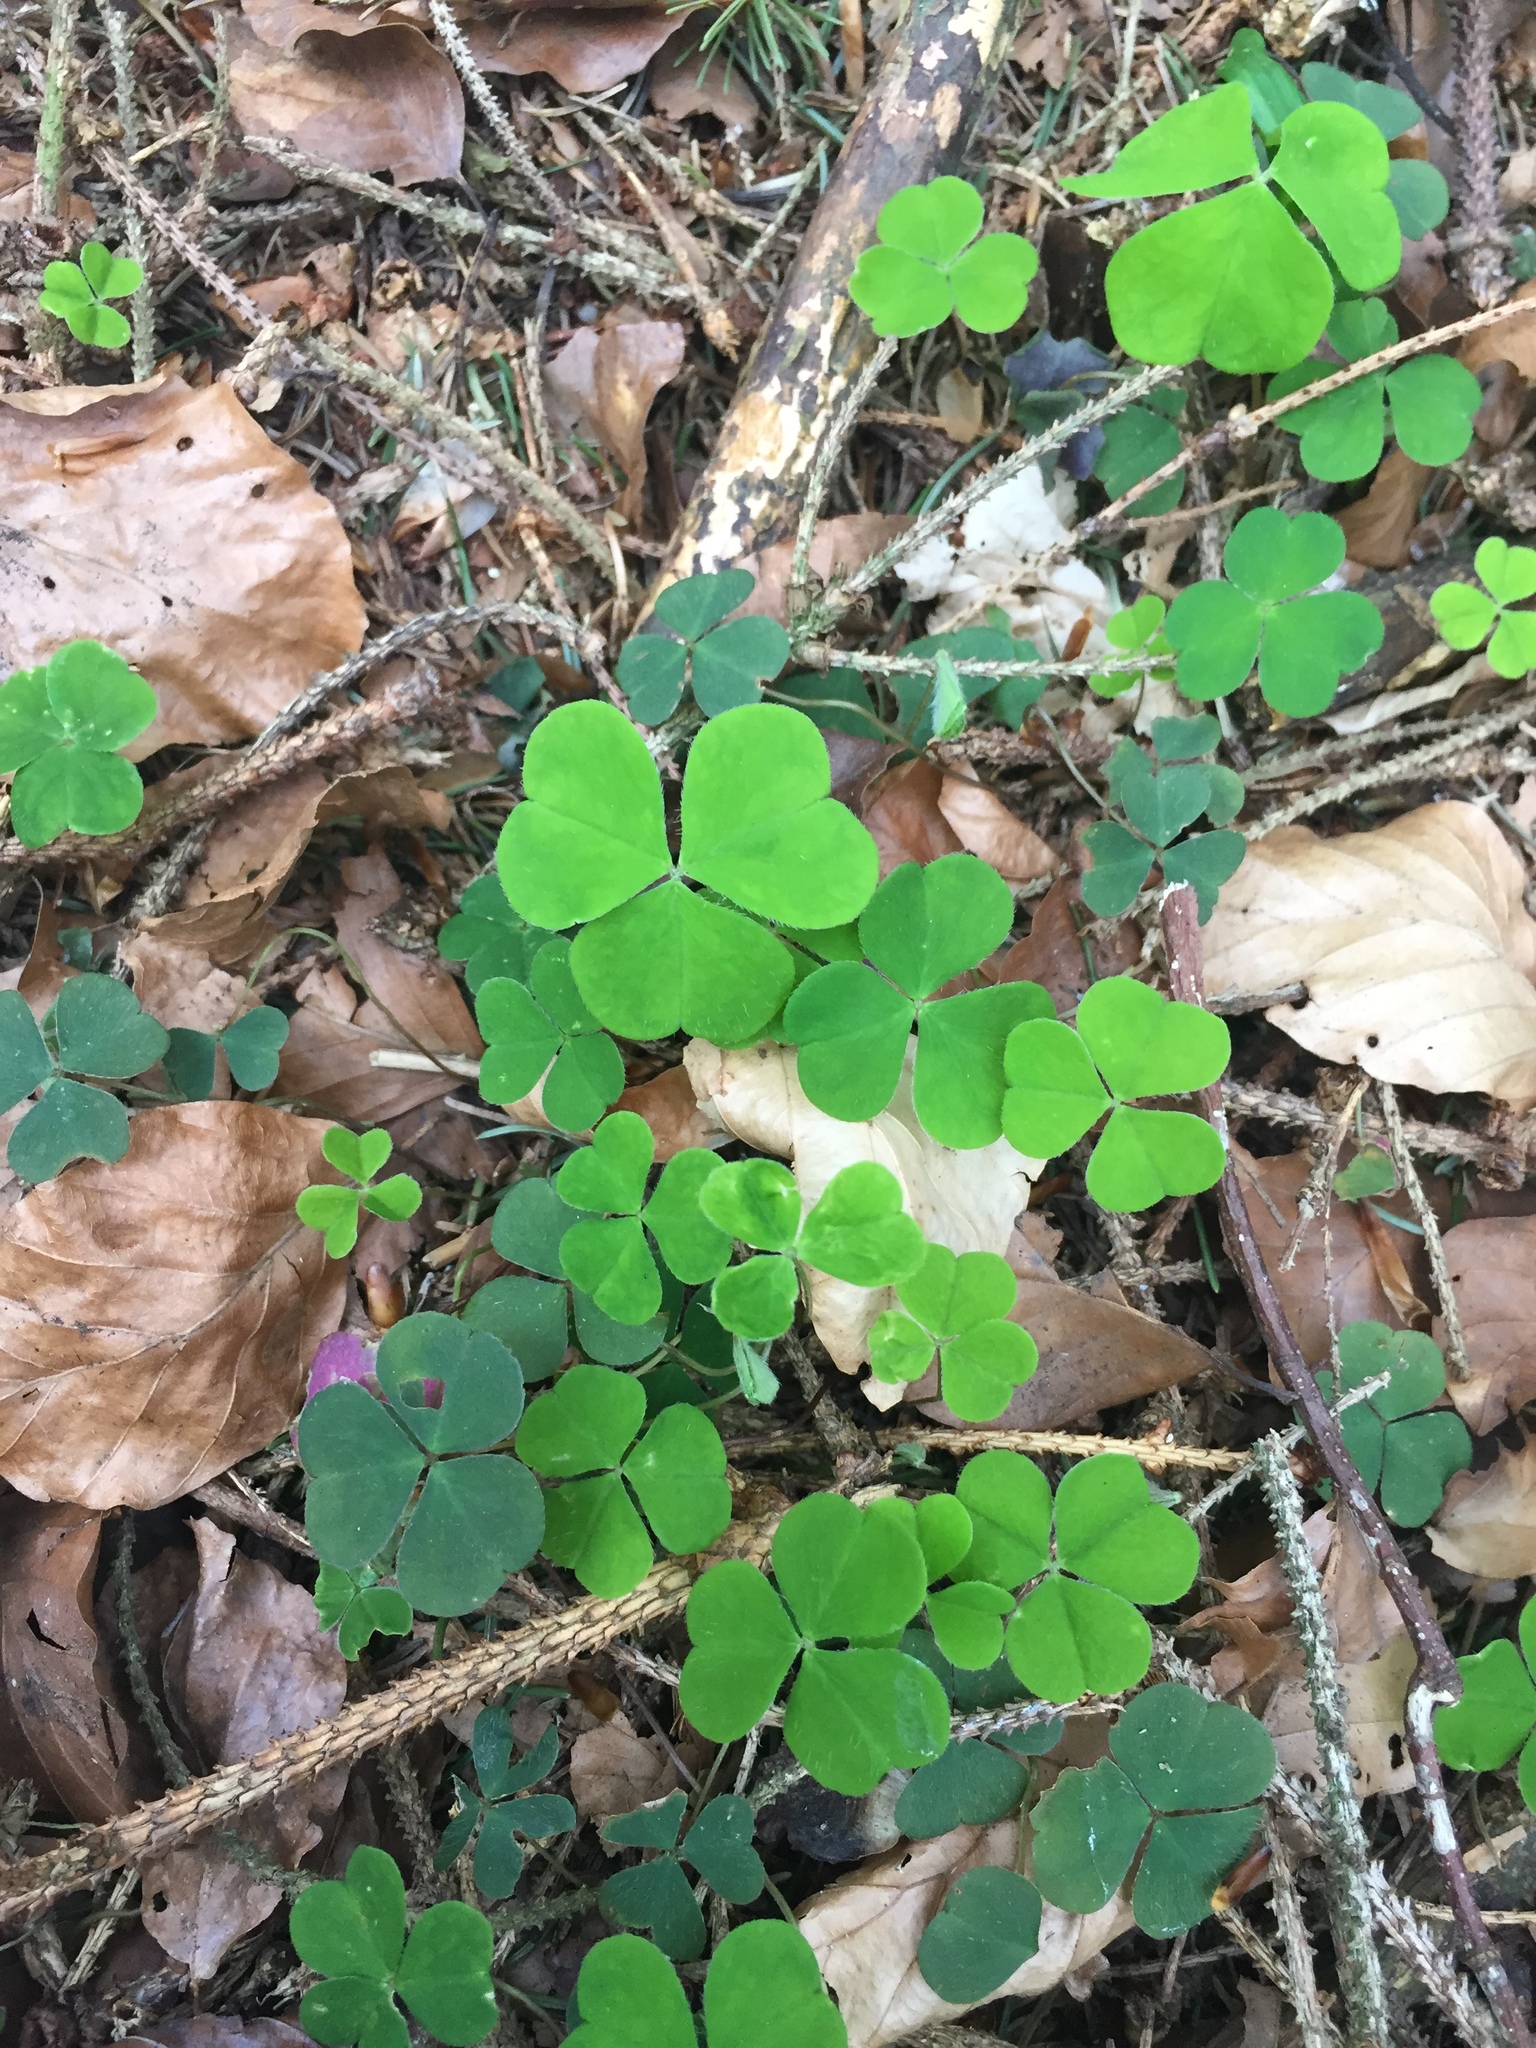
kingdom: Plantae
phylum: Tracheophyta
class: Magnoliopsida
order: Oxalidales
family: Oxalidaceae
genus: Oxalis
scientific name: Oxalis acetosella
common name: Wood-sorrel
